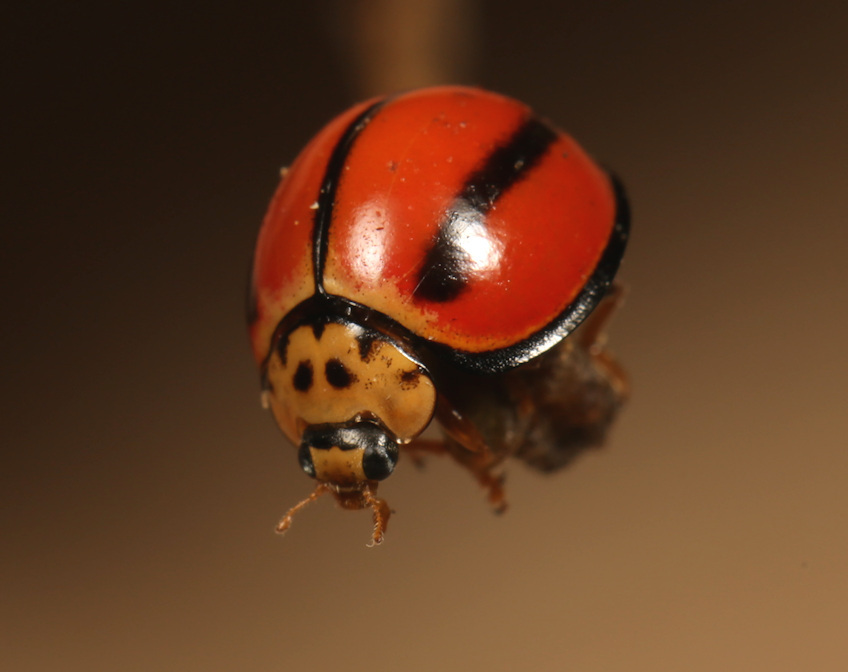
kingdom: Animalia
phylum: Arthropoda
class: Insecta
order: Coleoptera
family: Coccinellidae
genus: Declivitata
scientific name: Declivitata
